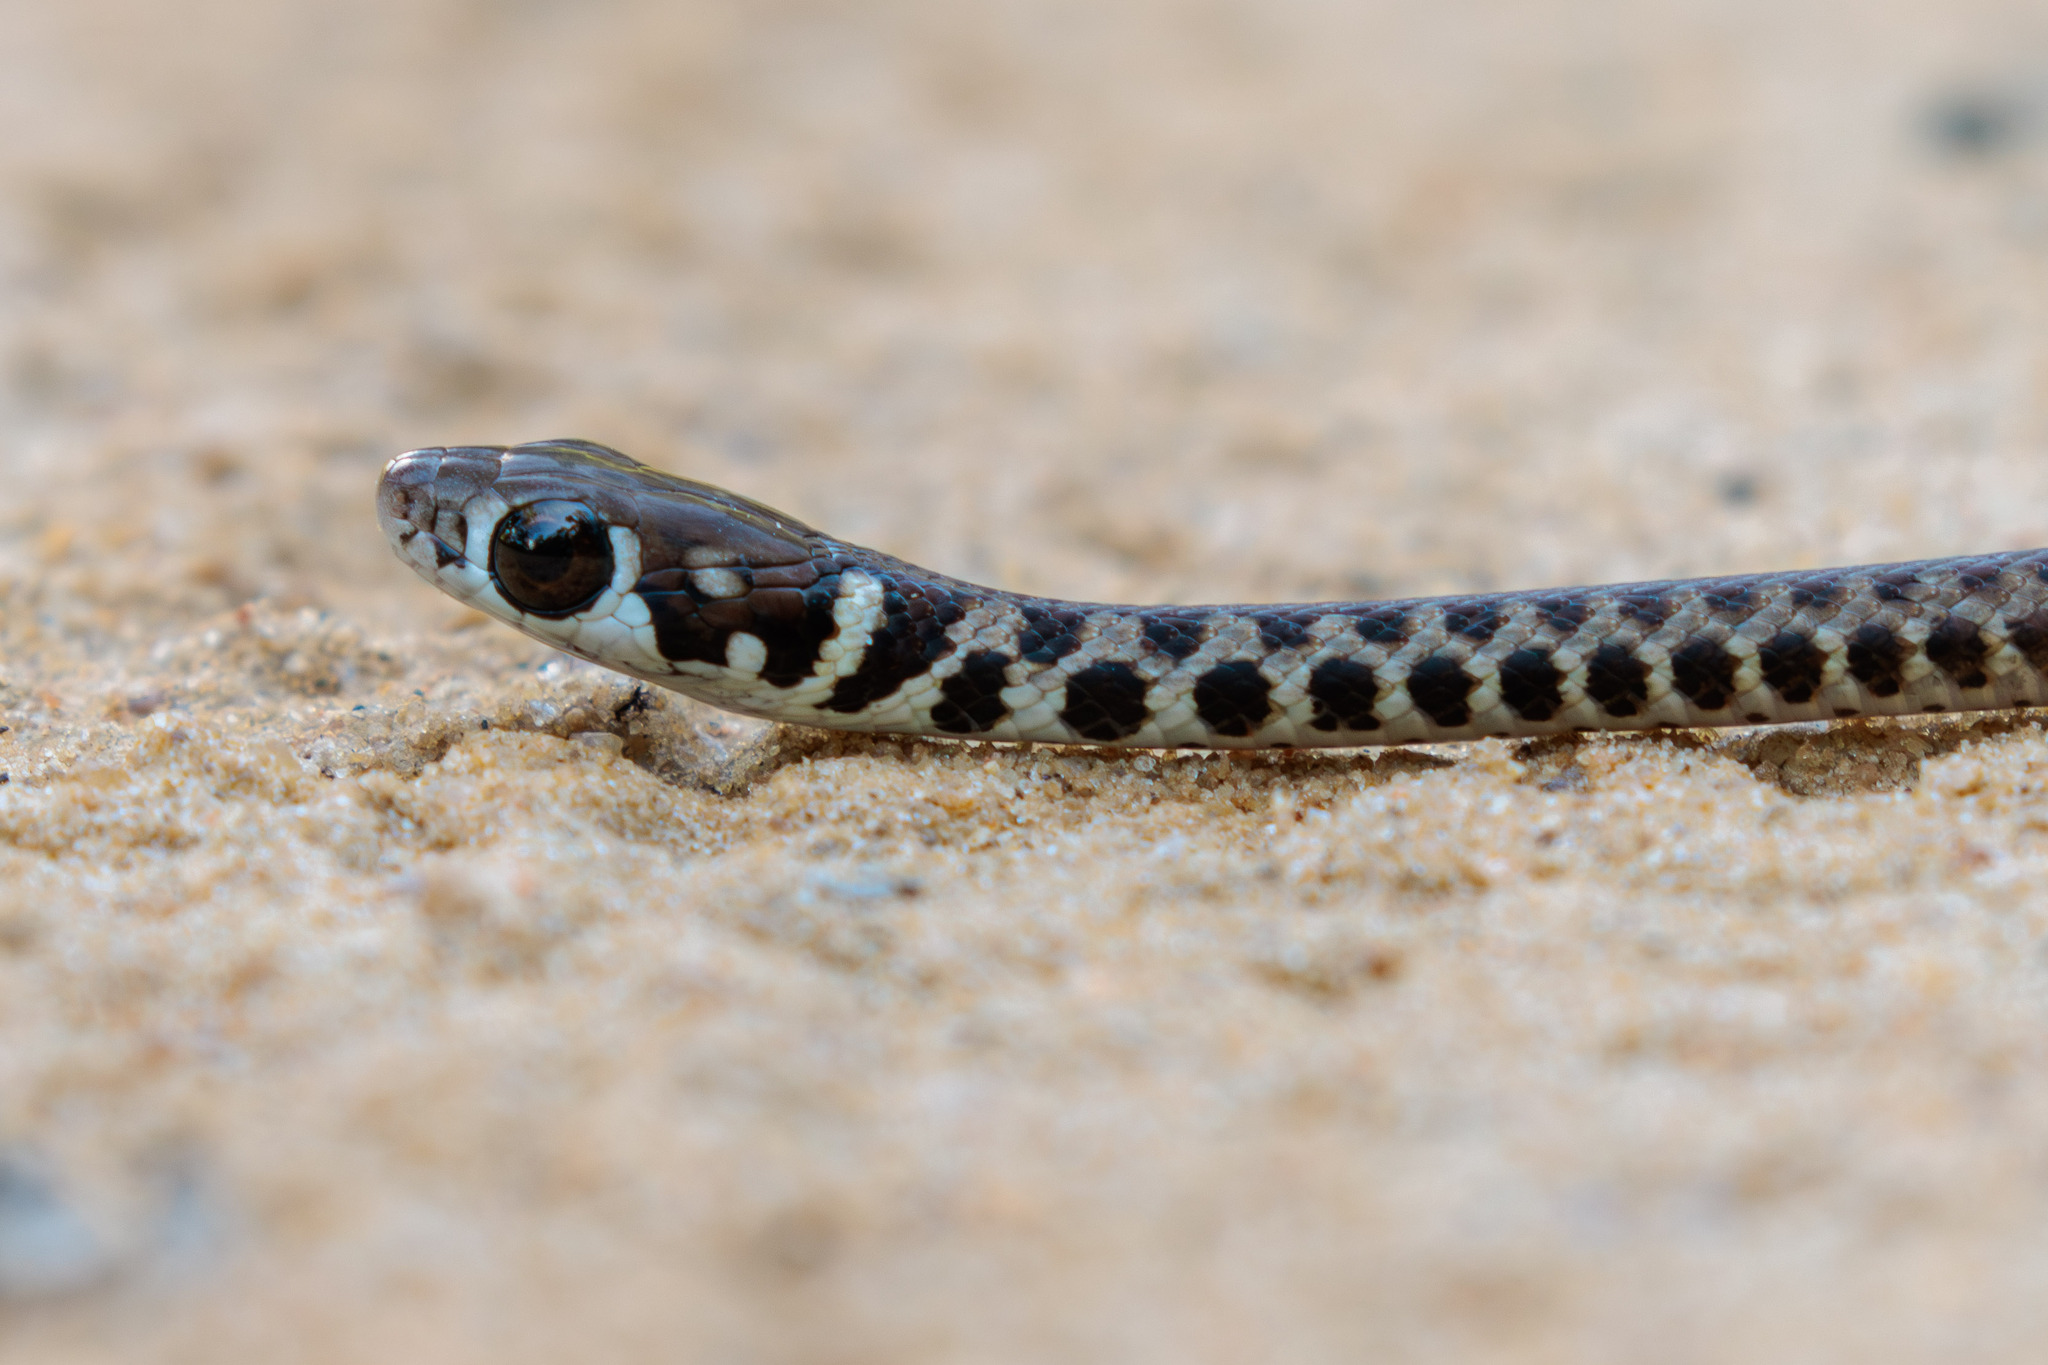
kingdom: Animalia
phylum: Chordata
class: Squamata
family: Colubridae
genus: Echinanthera
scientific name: Echinanthera cephalomaculata
